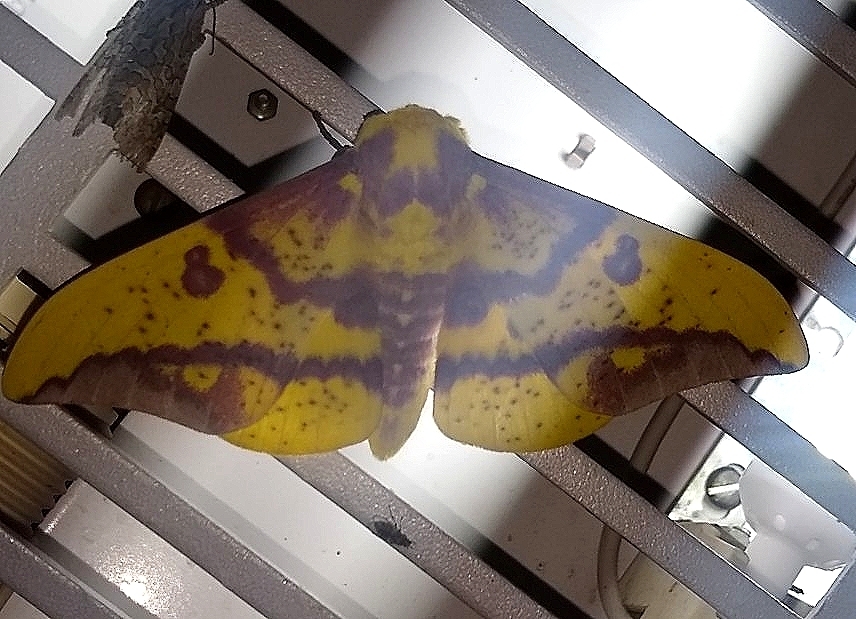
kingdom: Animalia
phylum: Arthropoda
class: Insecta
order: Lepidoptera
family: Saturniidae
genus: Eacles
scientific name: Eacles imperialis
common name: Imperial moth
